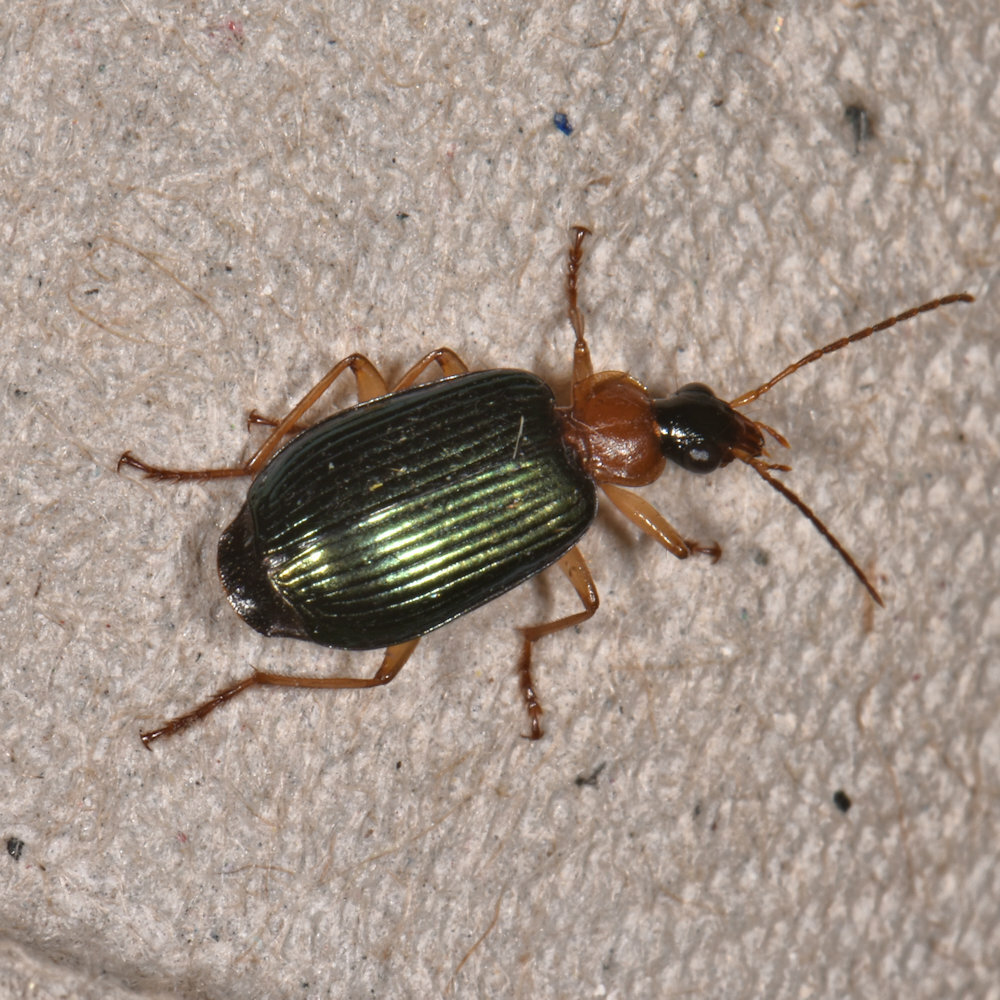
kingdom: Animalia
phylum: Arthropoda
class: Insecta
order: Coleoptera
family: Carabidae
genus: Lebia
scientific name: Lebia tricolor
